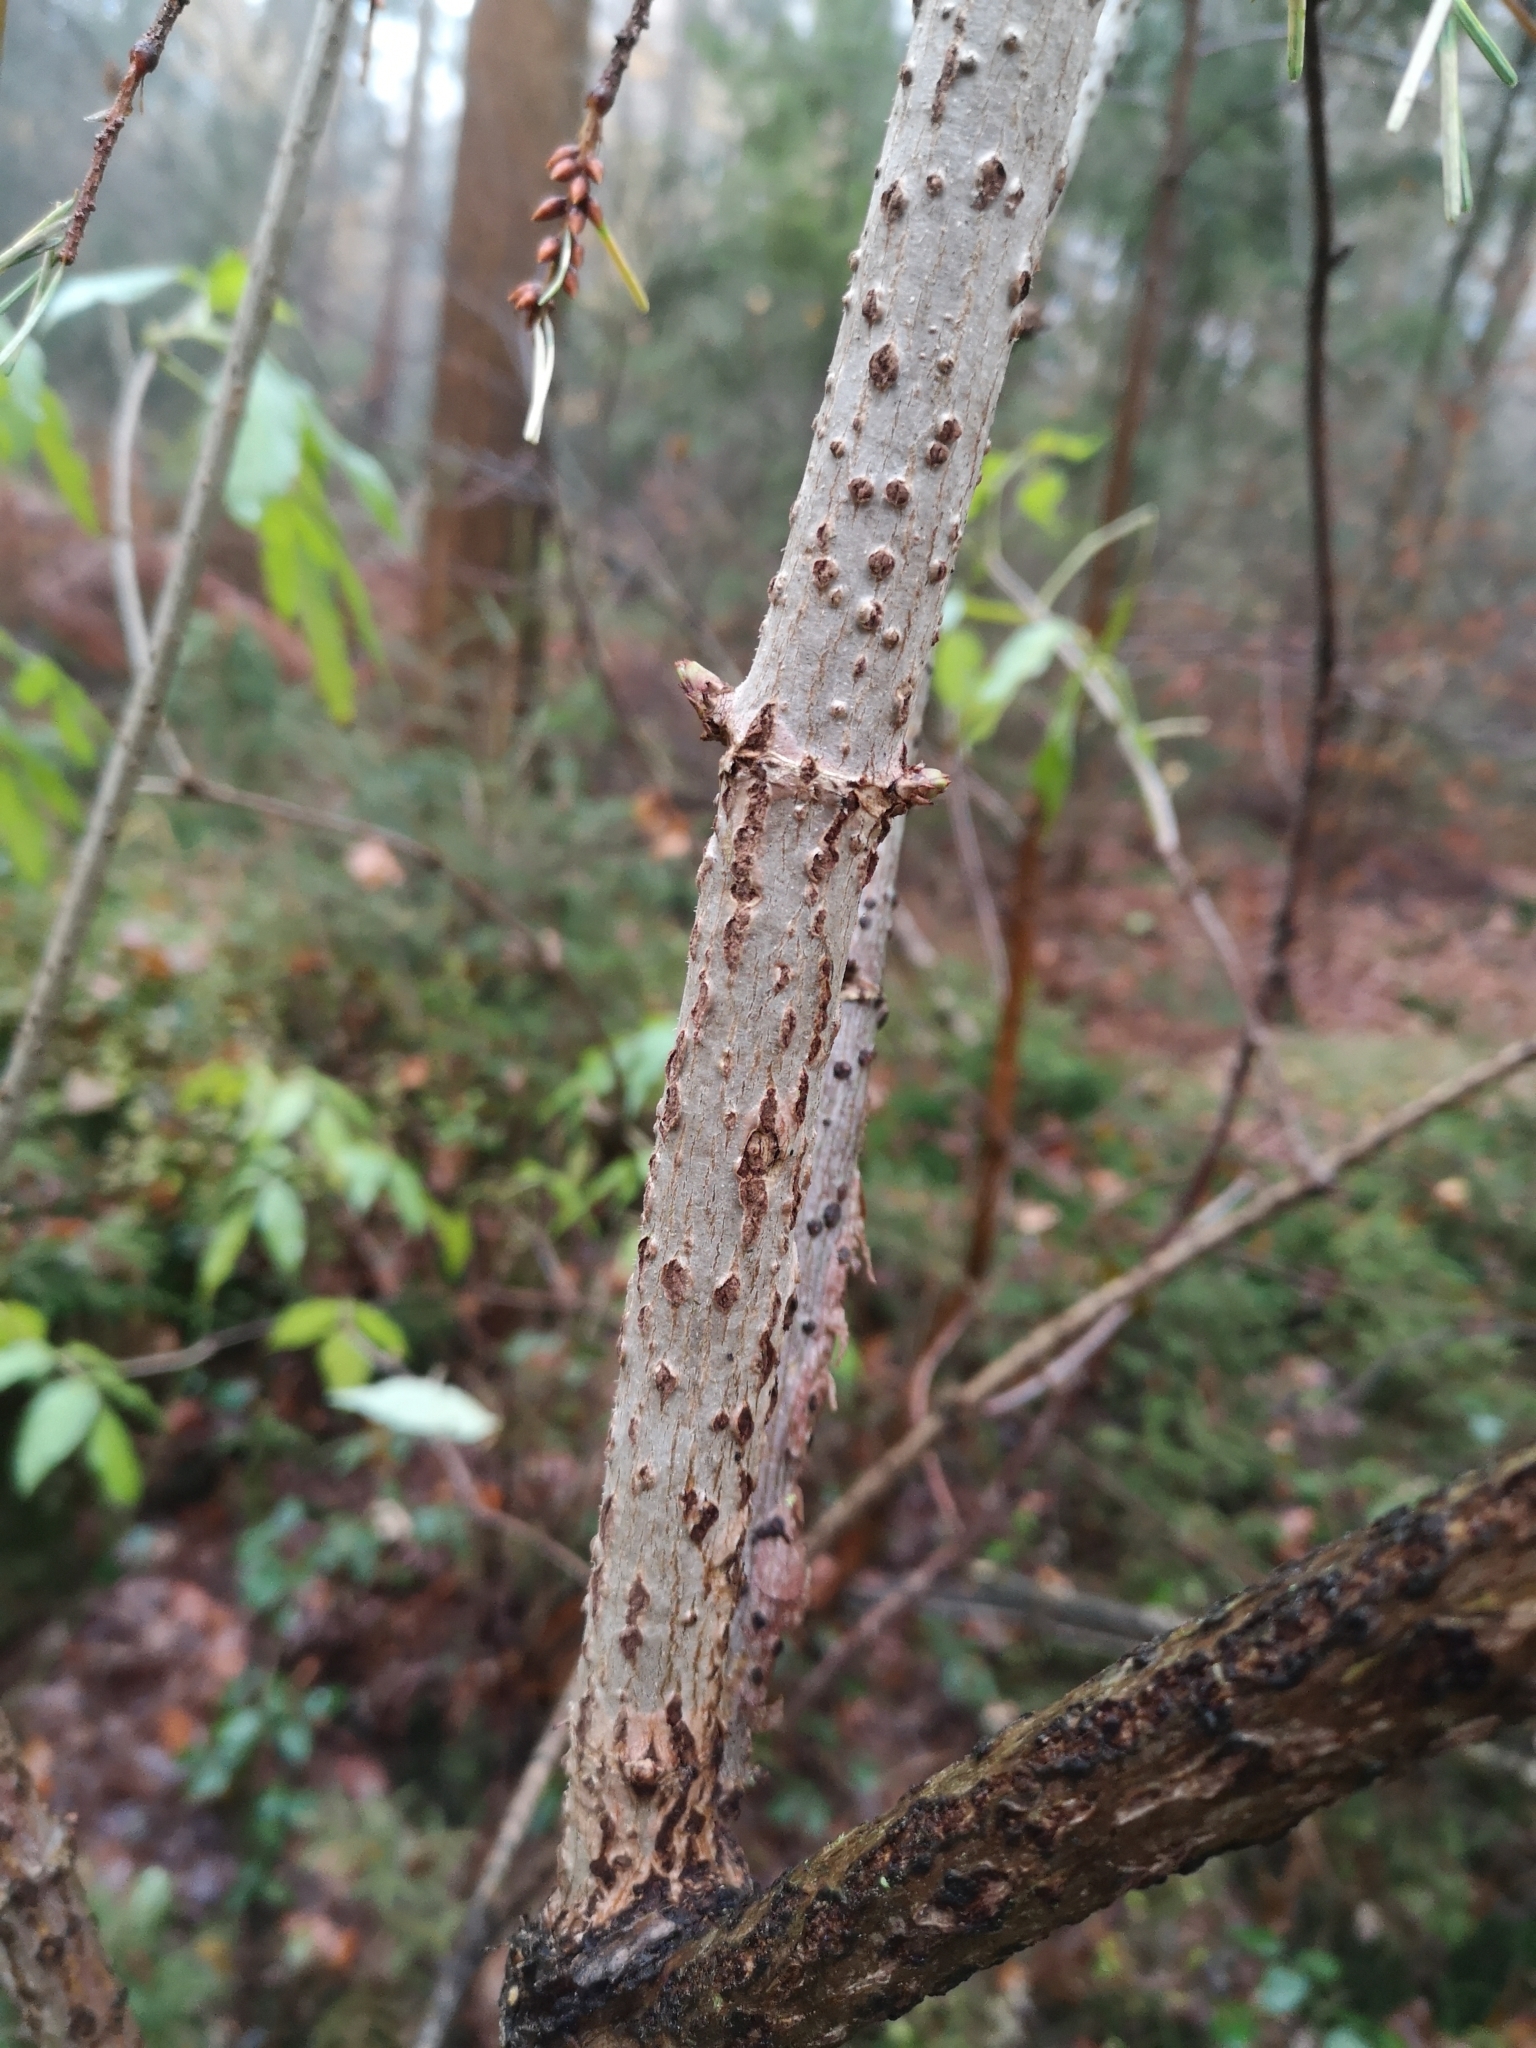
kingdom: Plantae
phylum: Tracheophyta
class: Magnoliopsida
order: Dipsacales
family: Viburnaceae
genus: Sambucus
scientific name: Sambucus nigra
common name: Elder
